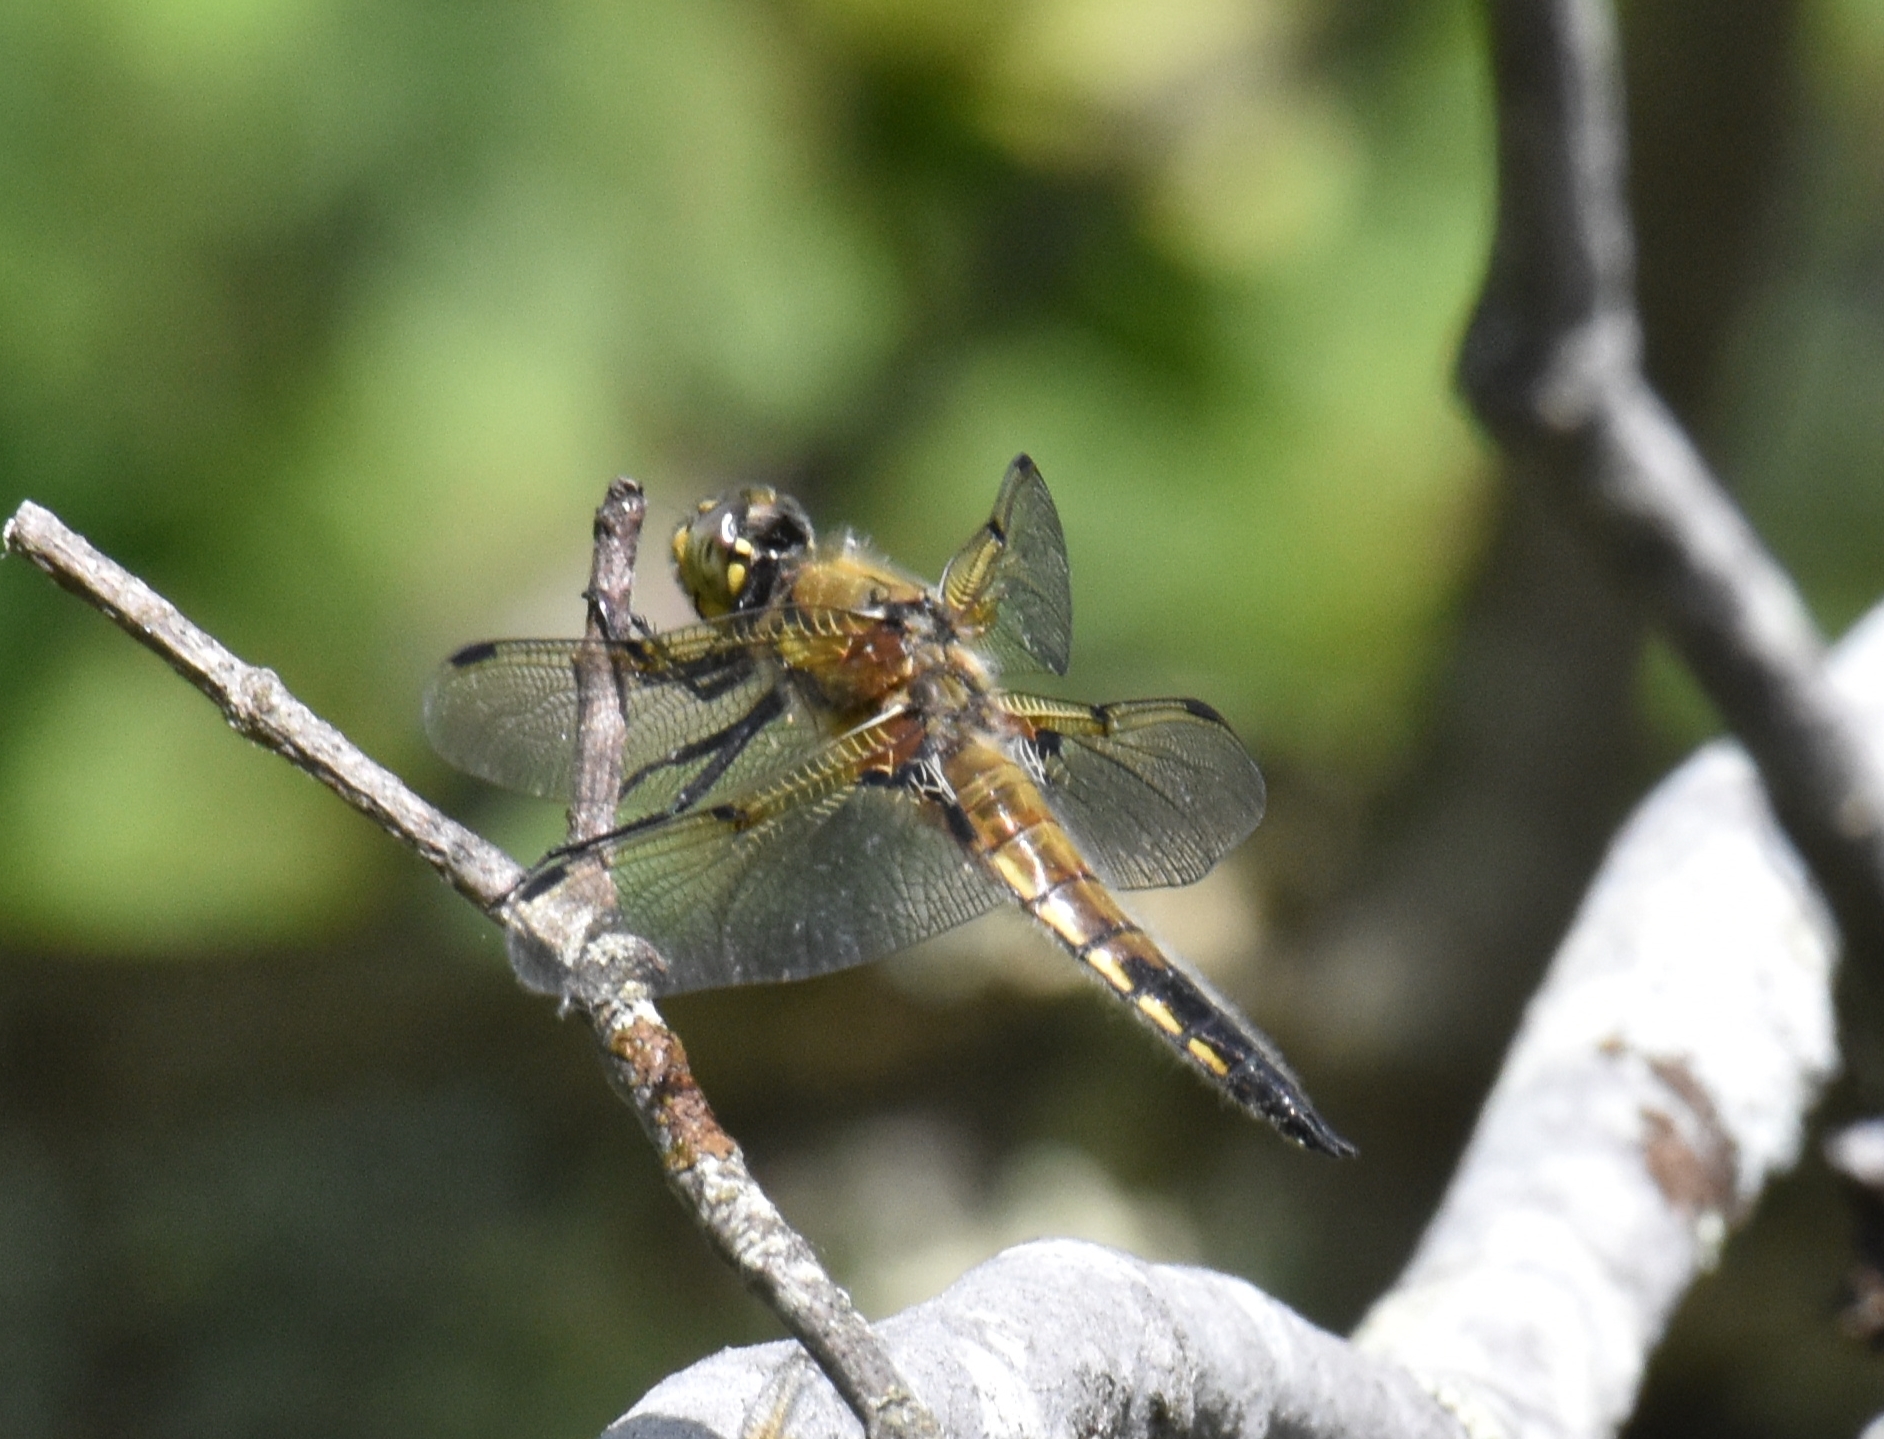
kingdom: Animalia
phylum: Arthropoda
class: Insecta
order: Odonata
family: Libellulidae
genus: Libellula
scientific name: Libellula quadrimaculata
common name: Four-spotted chaser
